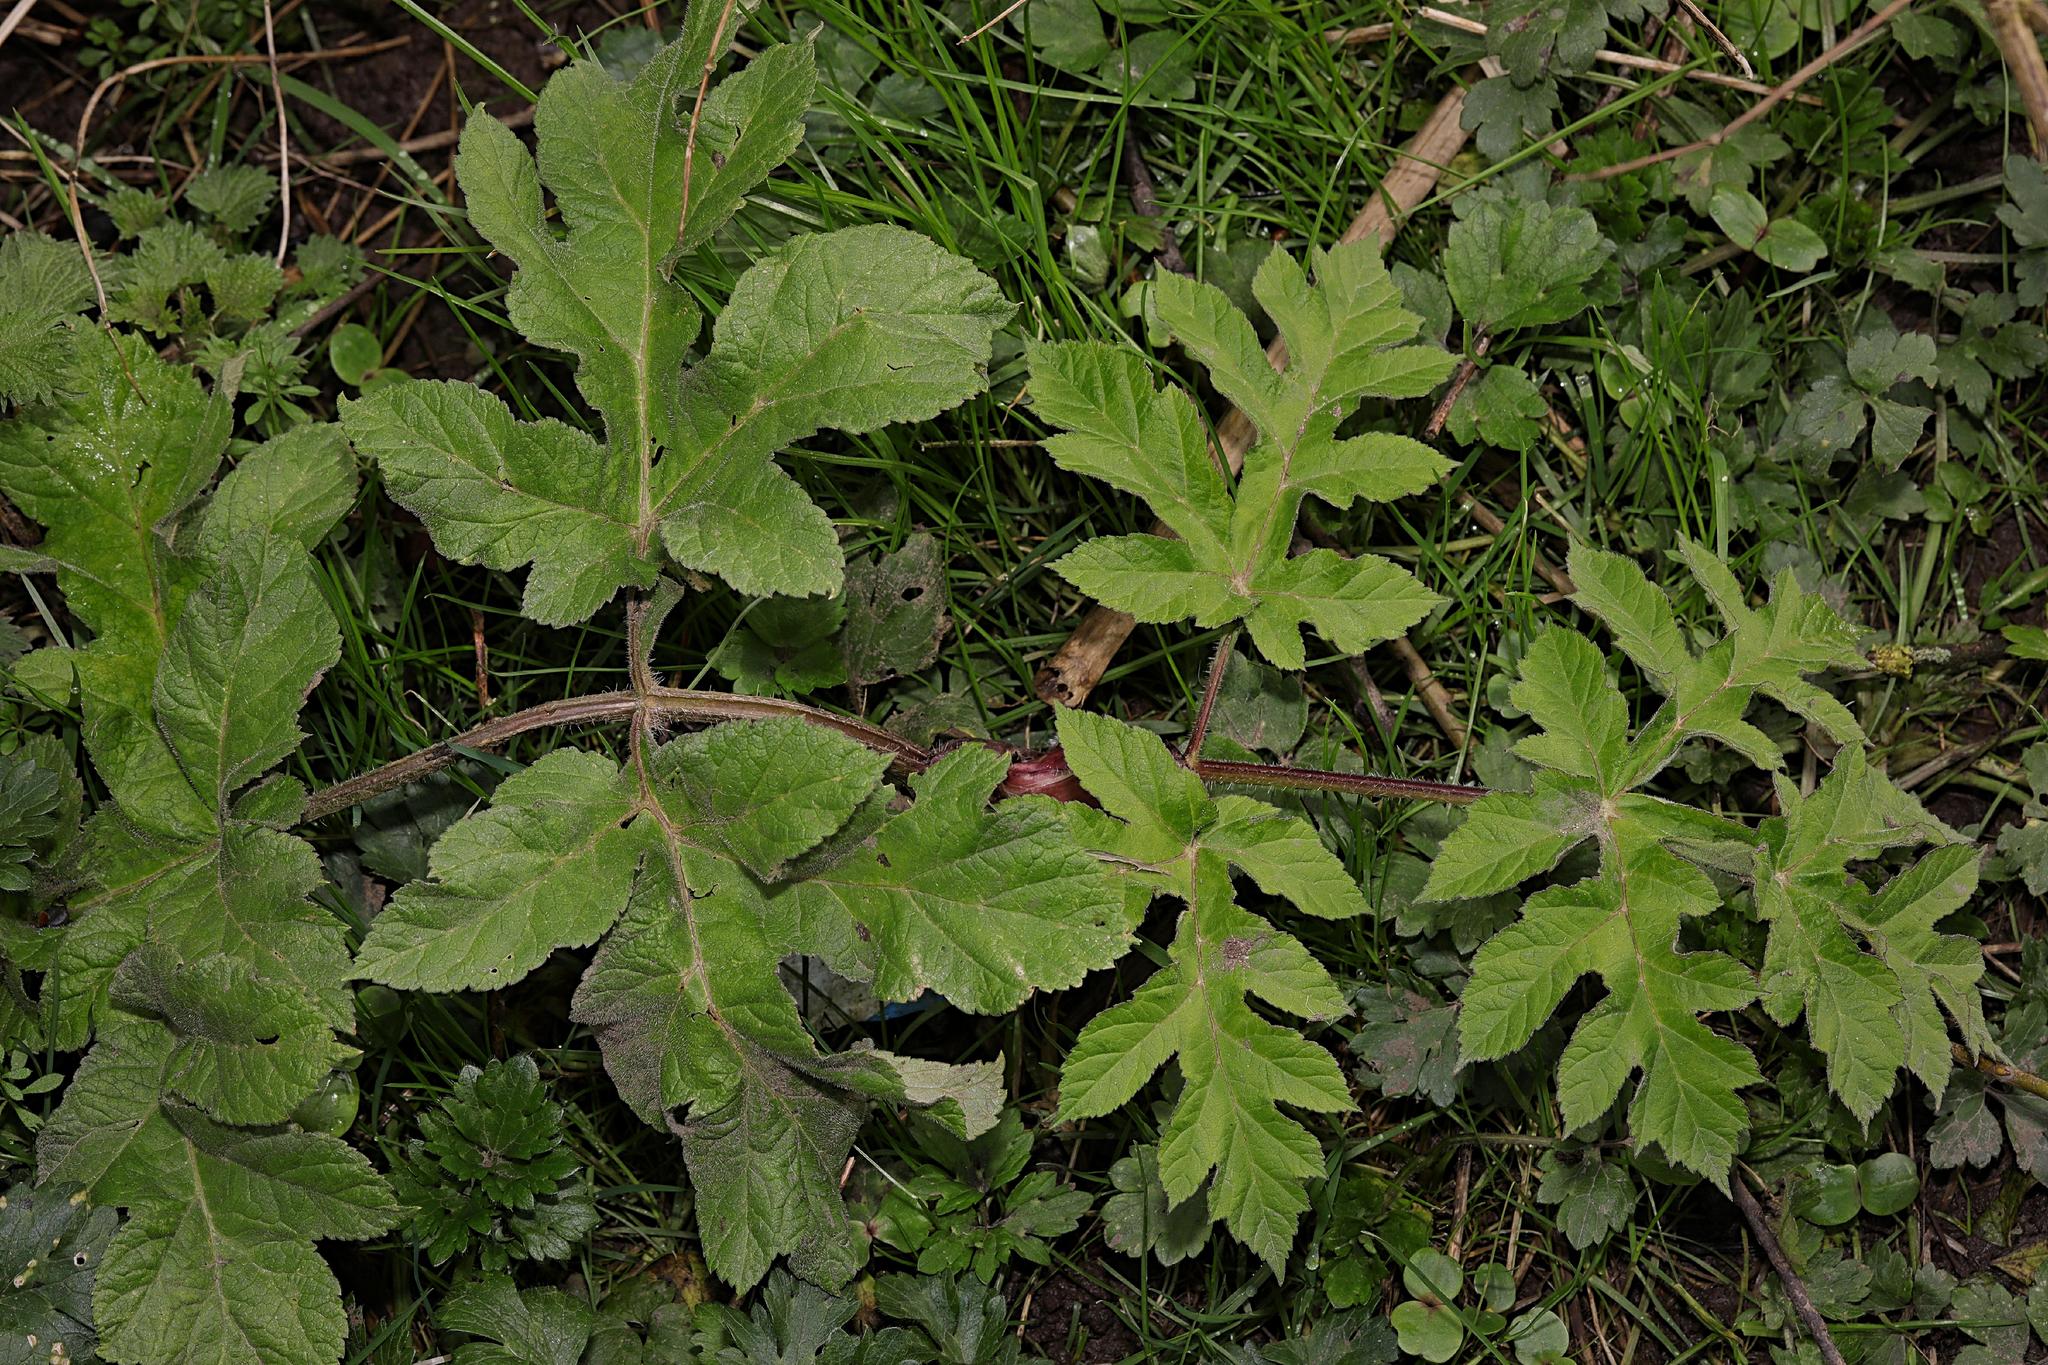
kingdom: Plantae
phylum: Tracheophyta
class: Magnoliopsida
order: Apiales
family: Apiaceae
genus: Heracleum
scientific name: Heracleum sphondylium
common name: Hogweed
